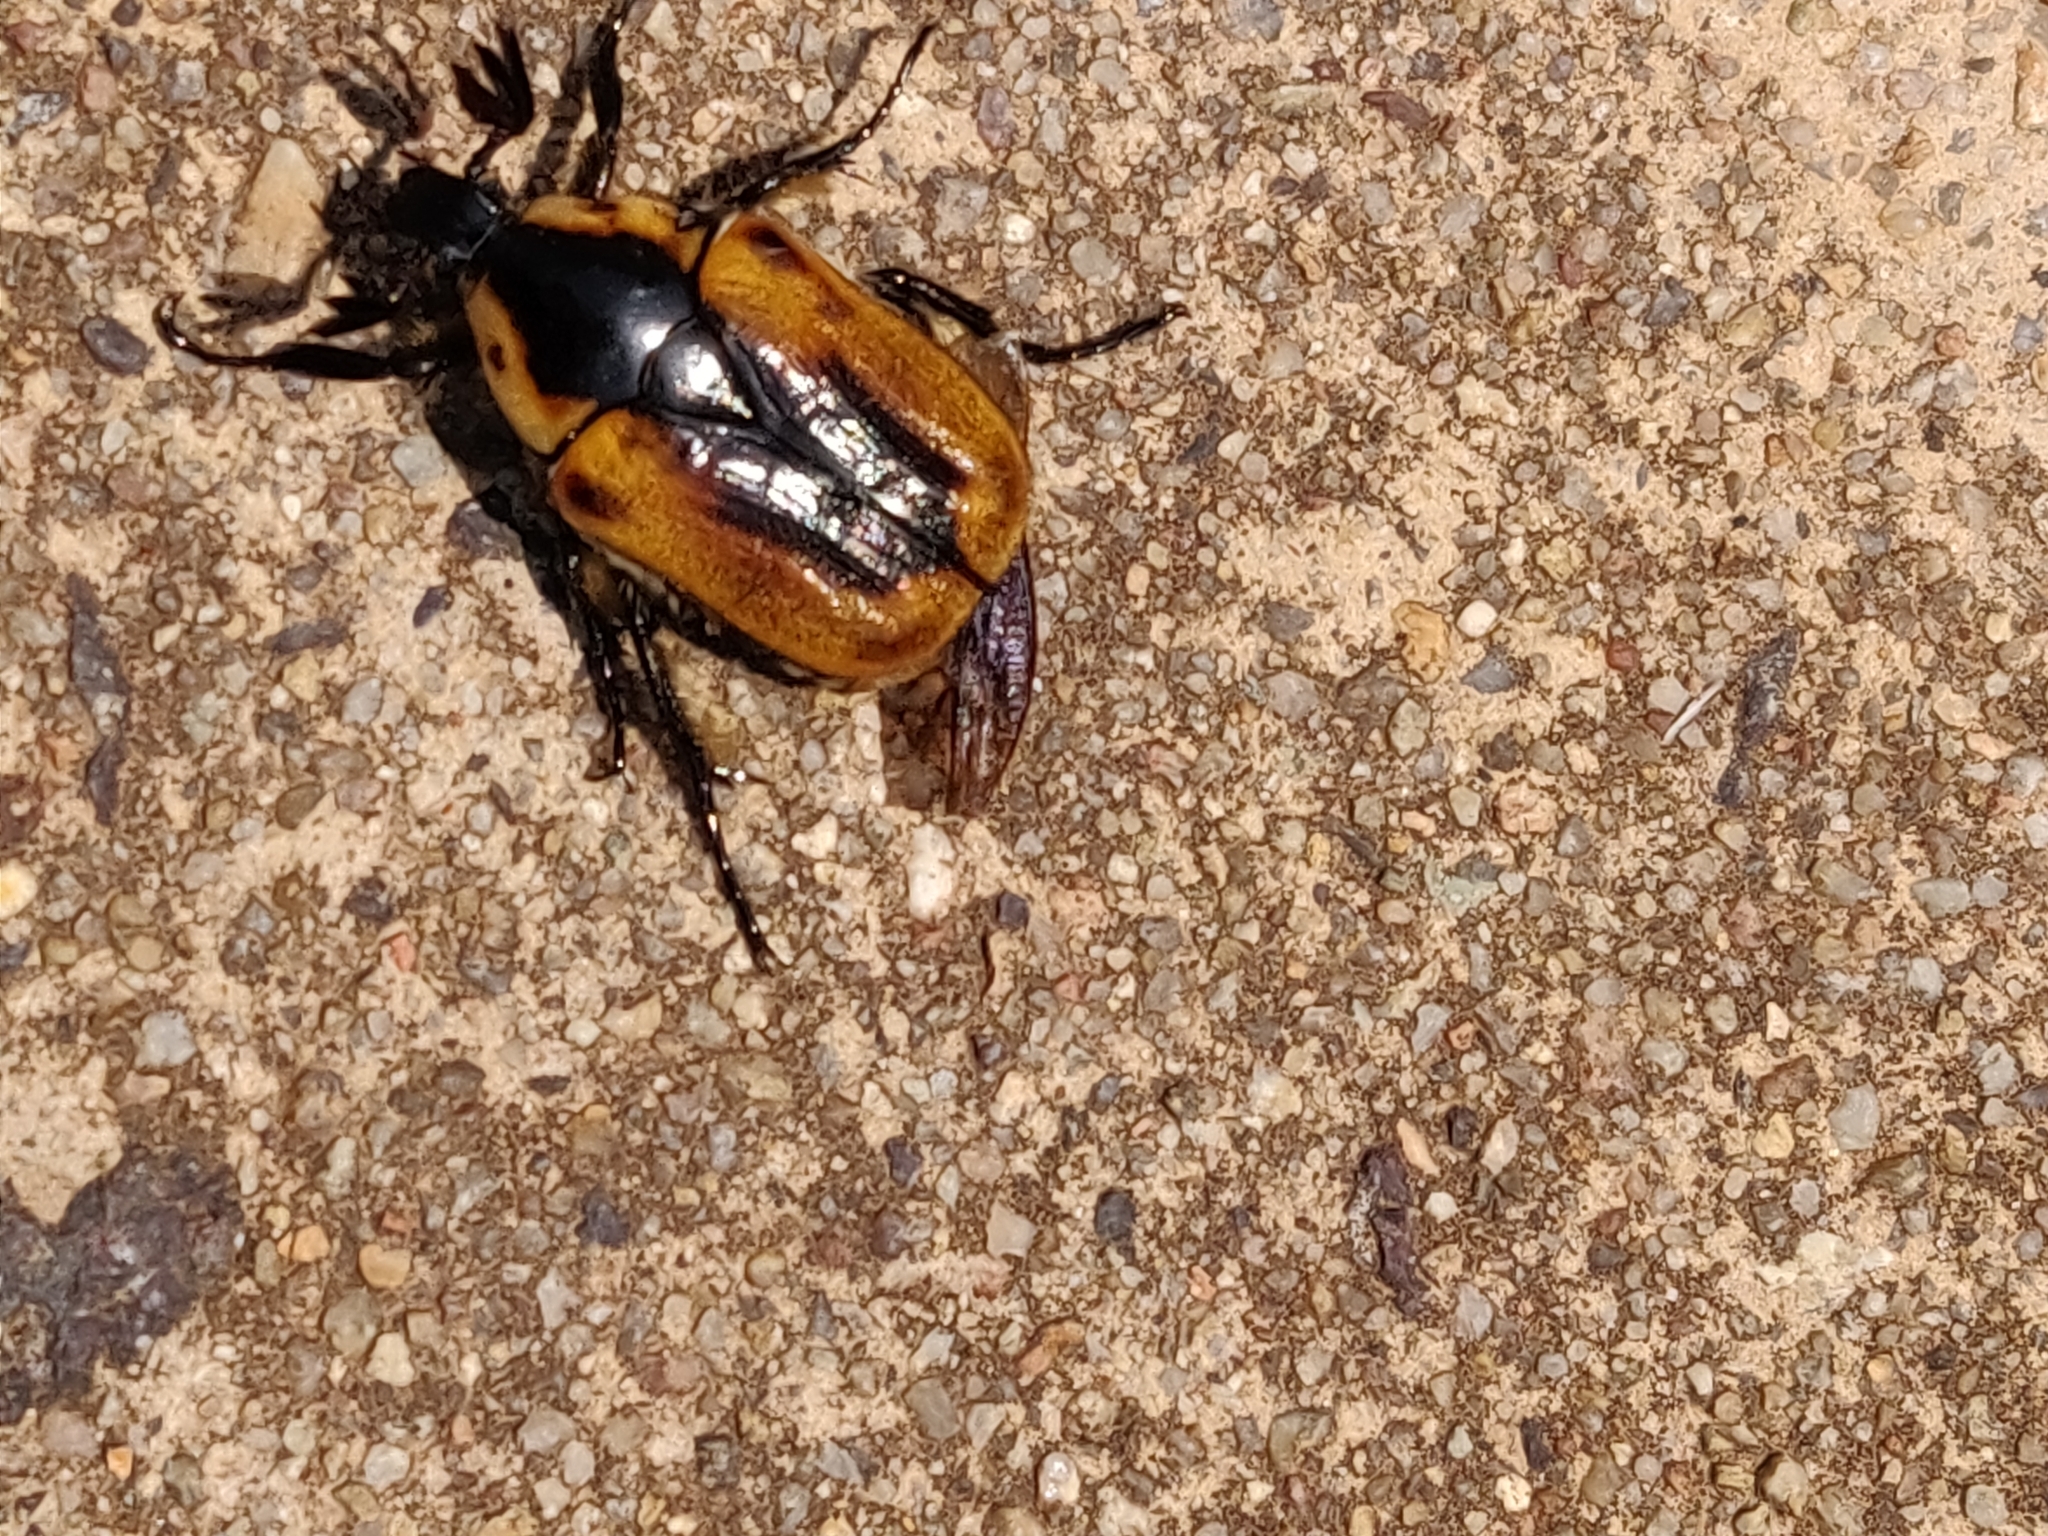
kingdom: Animalia
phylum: Arthropoda
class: Insecta
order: Coleoptera
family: Scarabaeidae
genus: Chondropyga
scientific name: Chondropyga dorsalis
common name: Cowboy beetle
